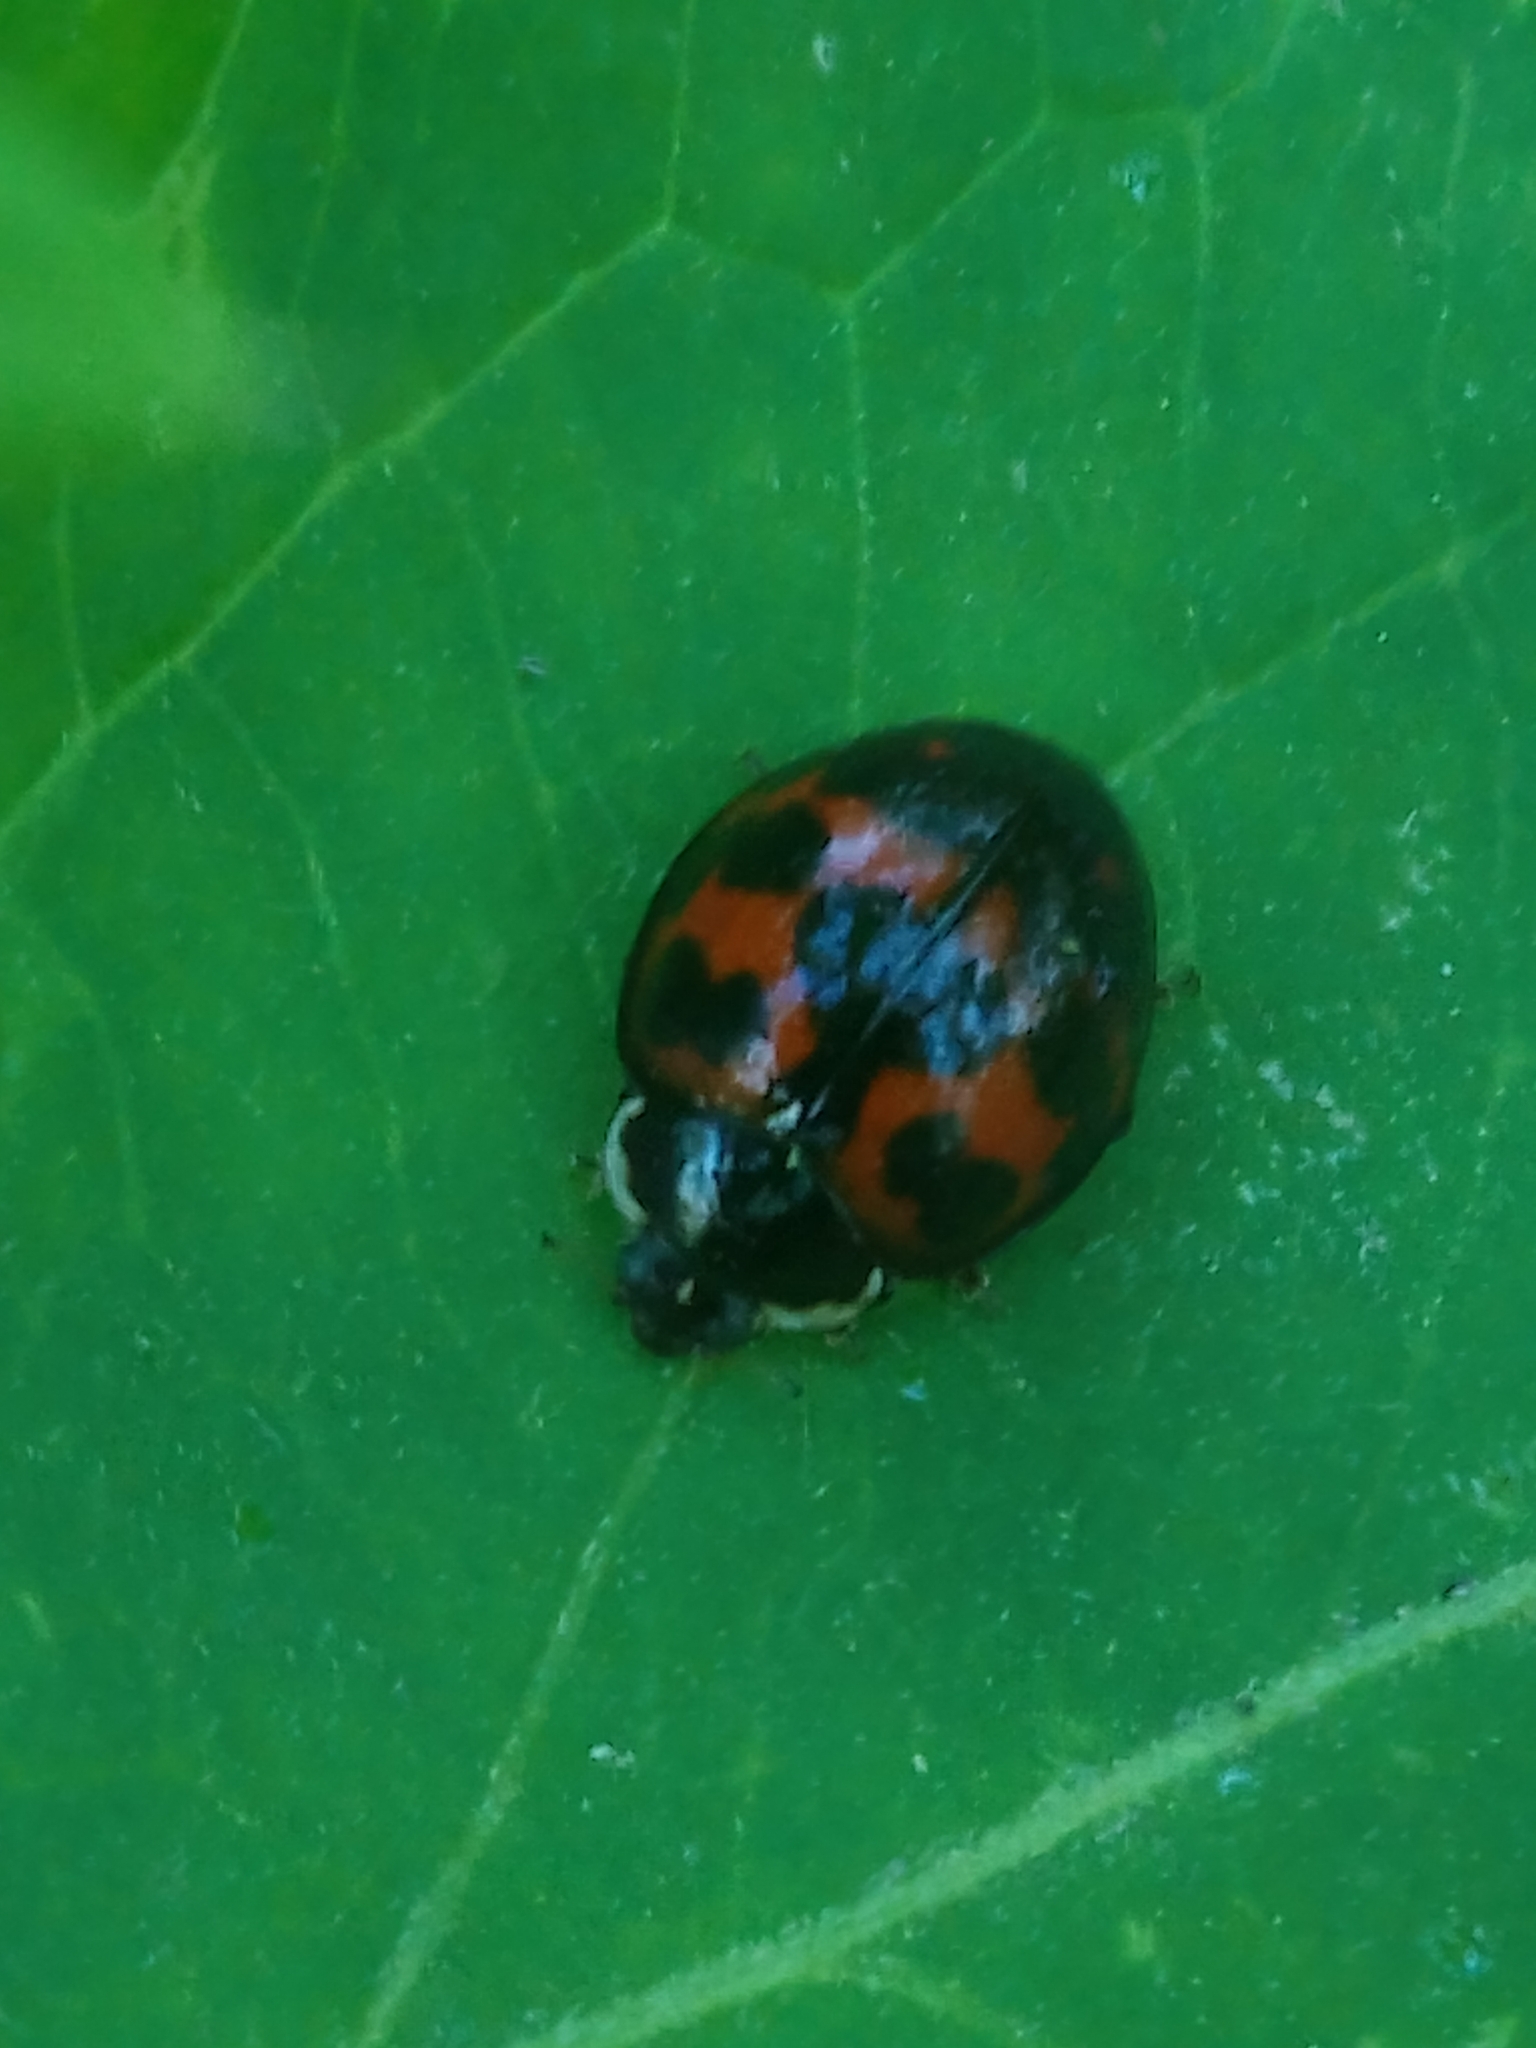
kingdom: Animalia
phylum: Arthropoda
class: Insecta
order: Coleoptera
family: Coccinellidae
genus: Harmonia
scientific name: Harmonia axyridis
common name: Harlequin ladybird
